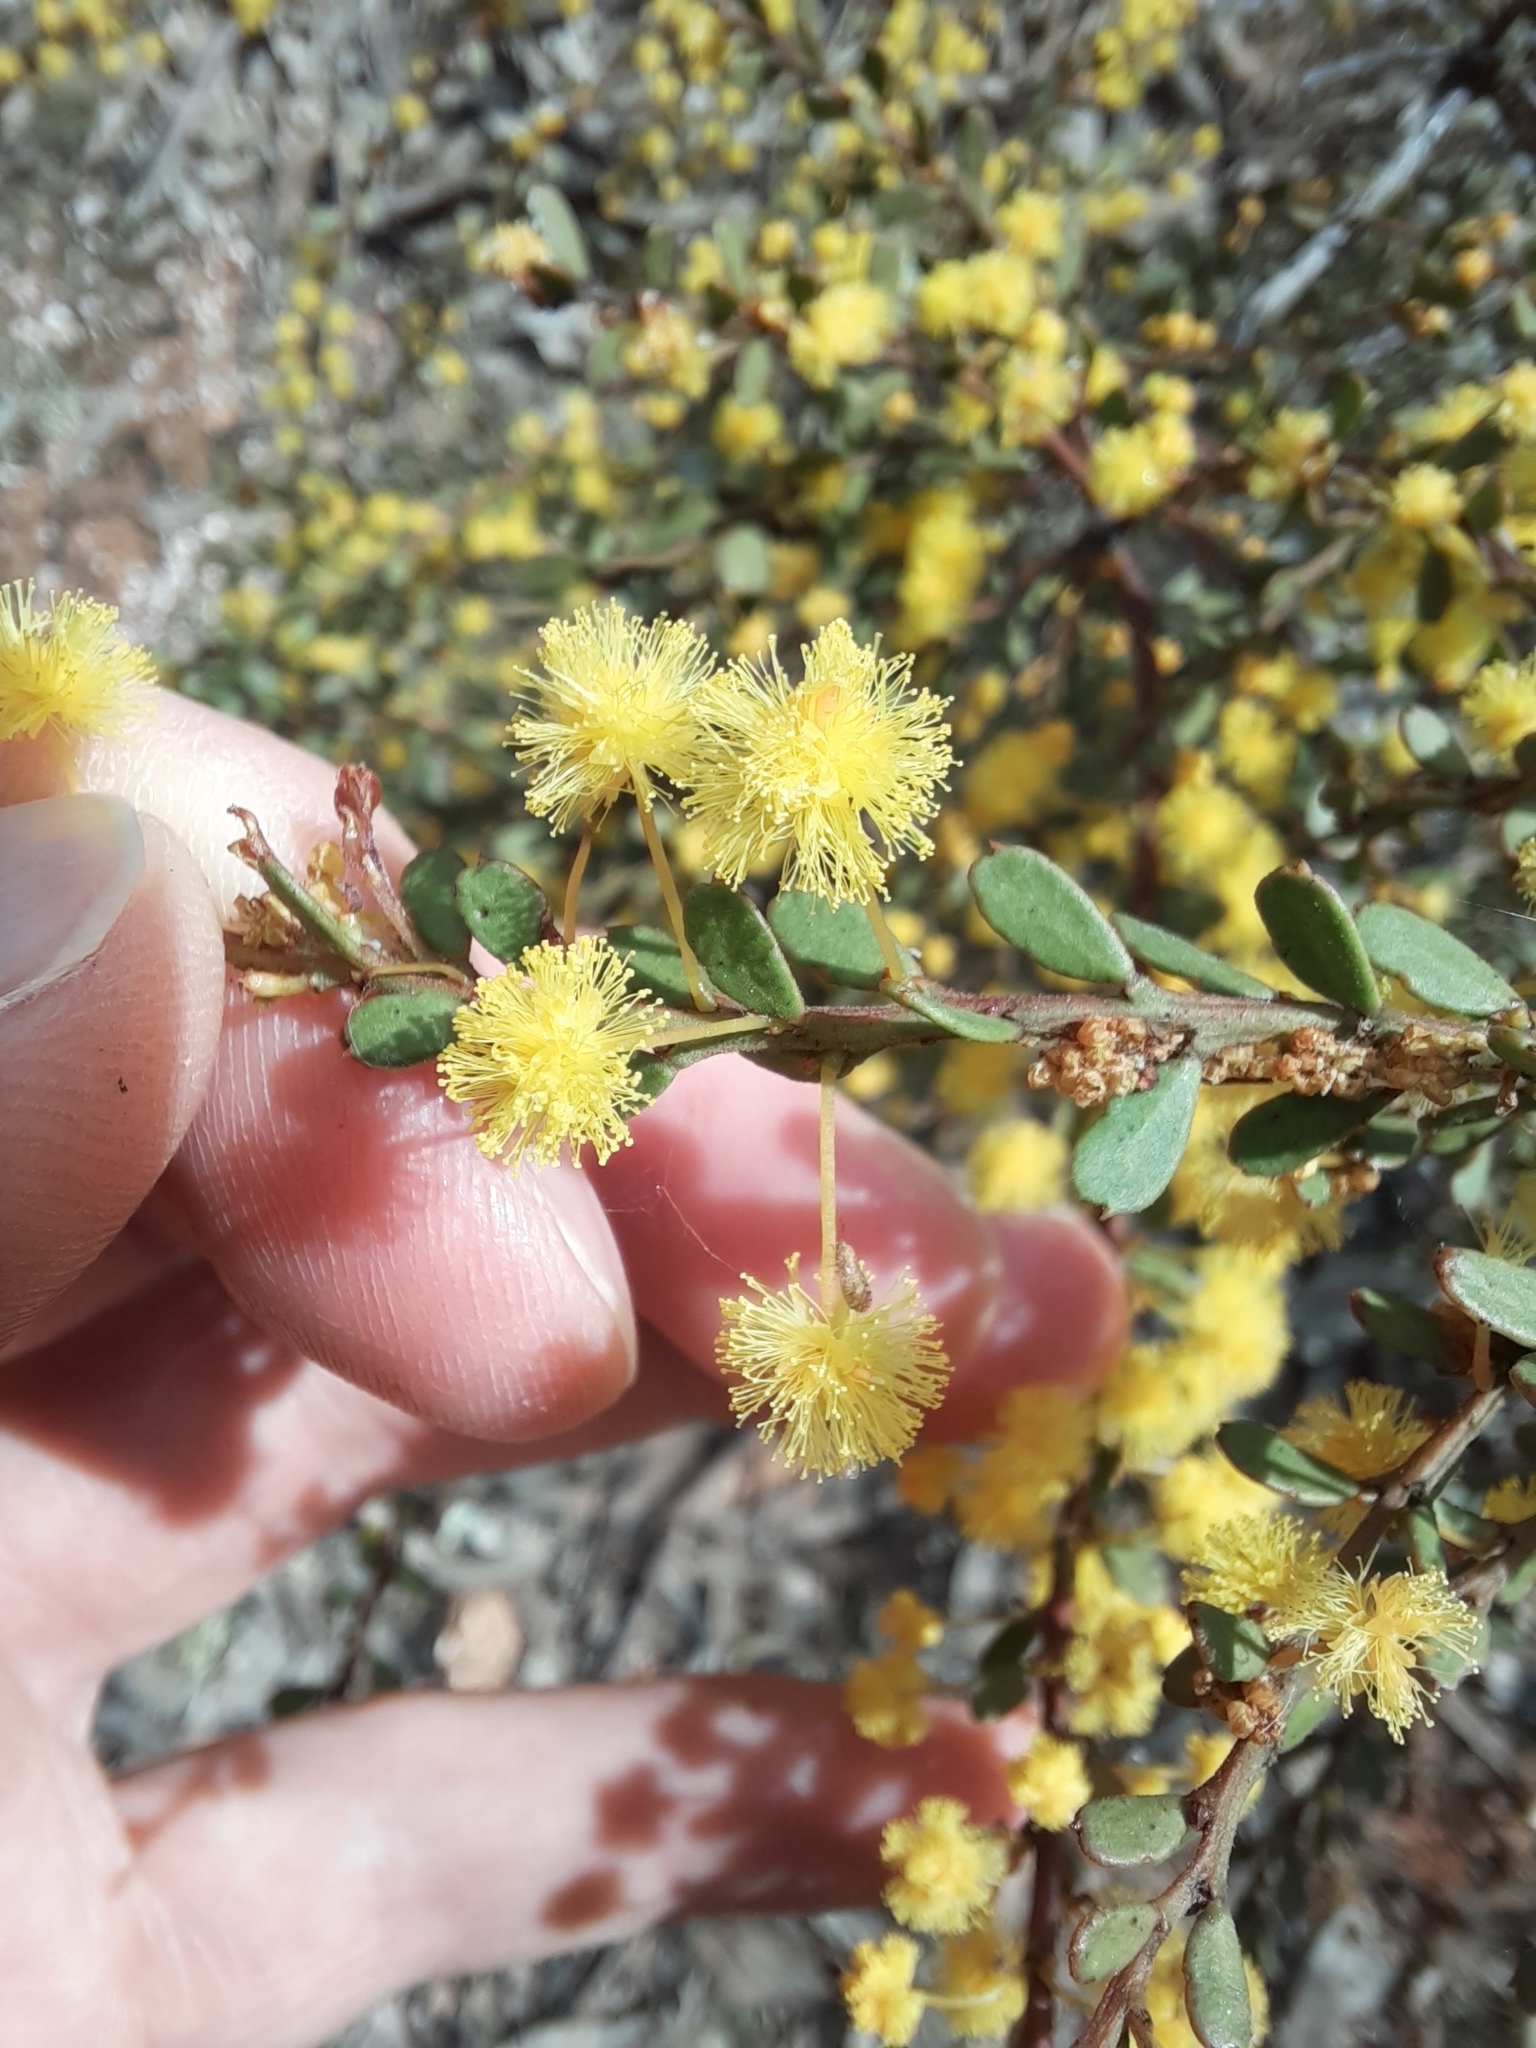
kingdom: Plantae
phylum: Tracheophyta
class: Magnoliopsida
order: Fabales
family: Fabaceae
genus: Acacia
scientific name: Acacia acinacea
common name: Gold-dust acacia
